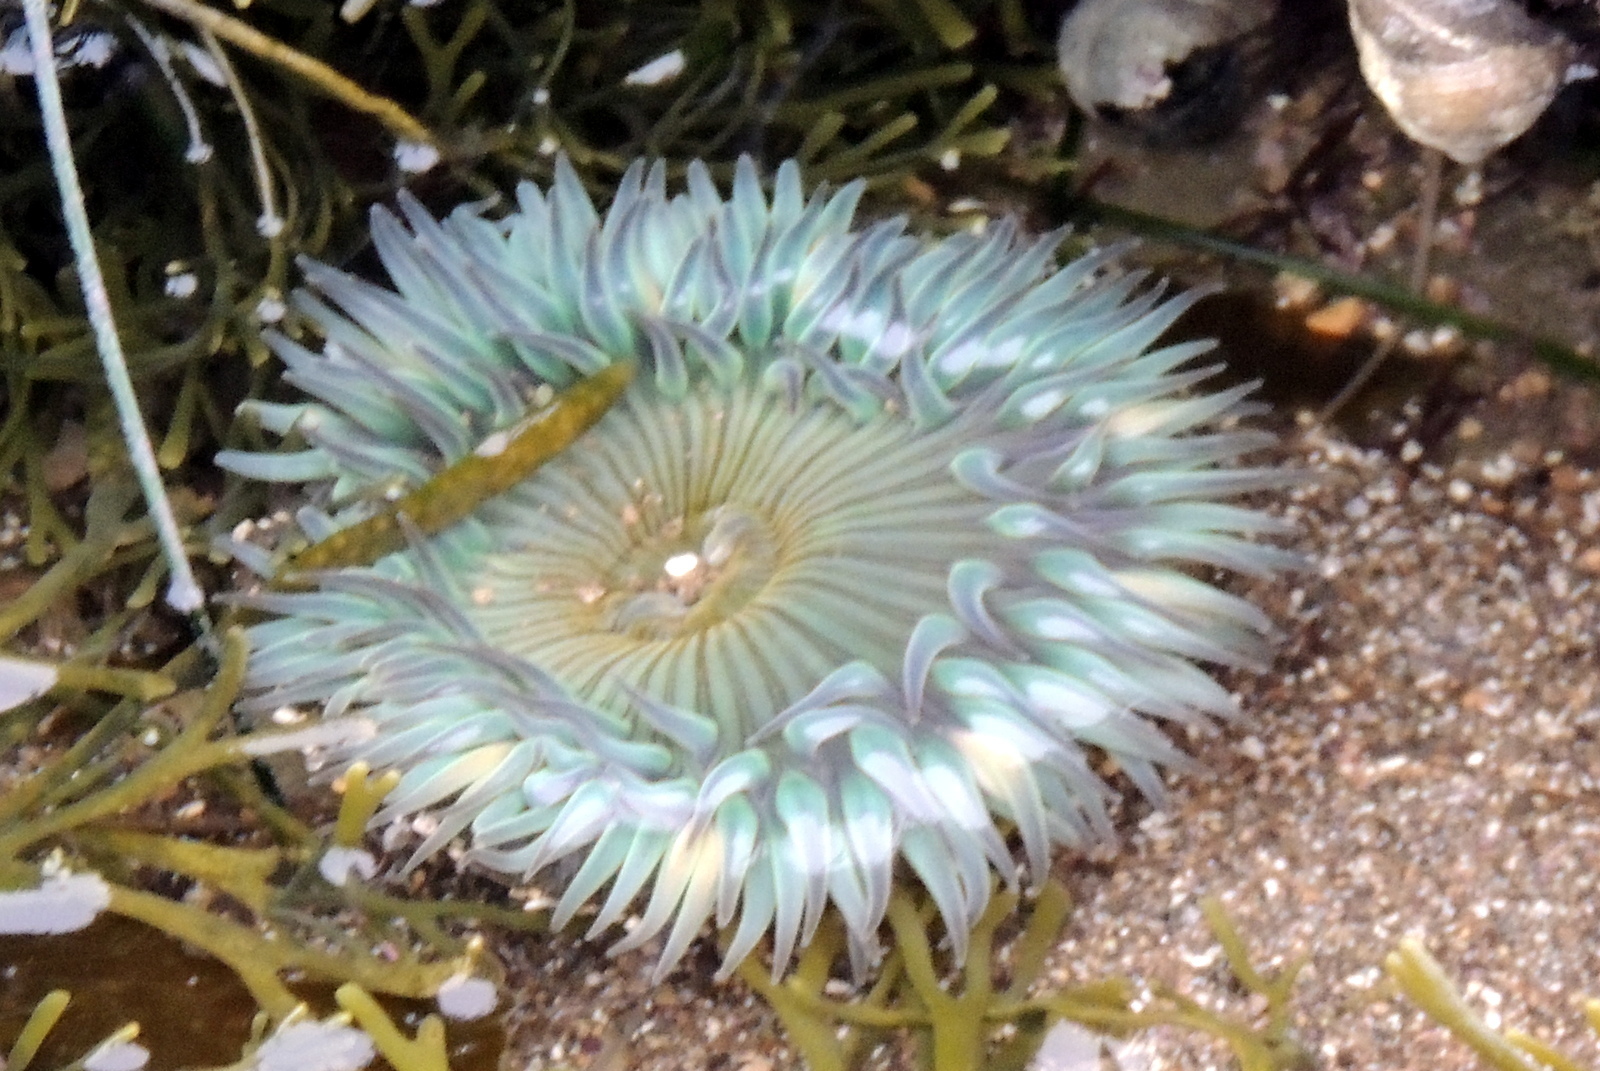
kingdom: Animalia
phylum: Cnidaria
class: Anthozoa
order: Actiniaria
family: Actiniidae
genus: Anthopleura
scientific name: Anthopleura sola
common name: Sun anemone
